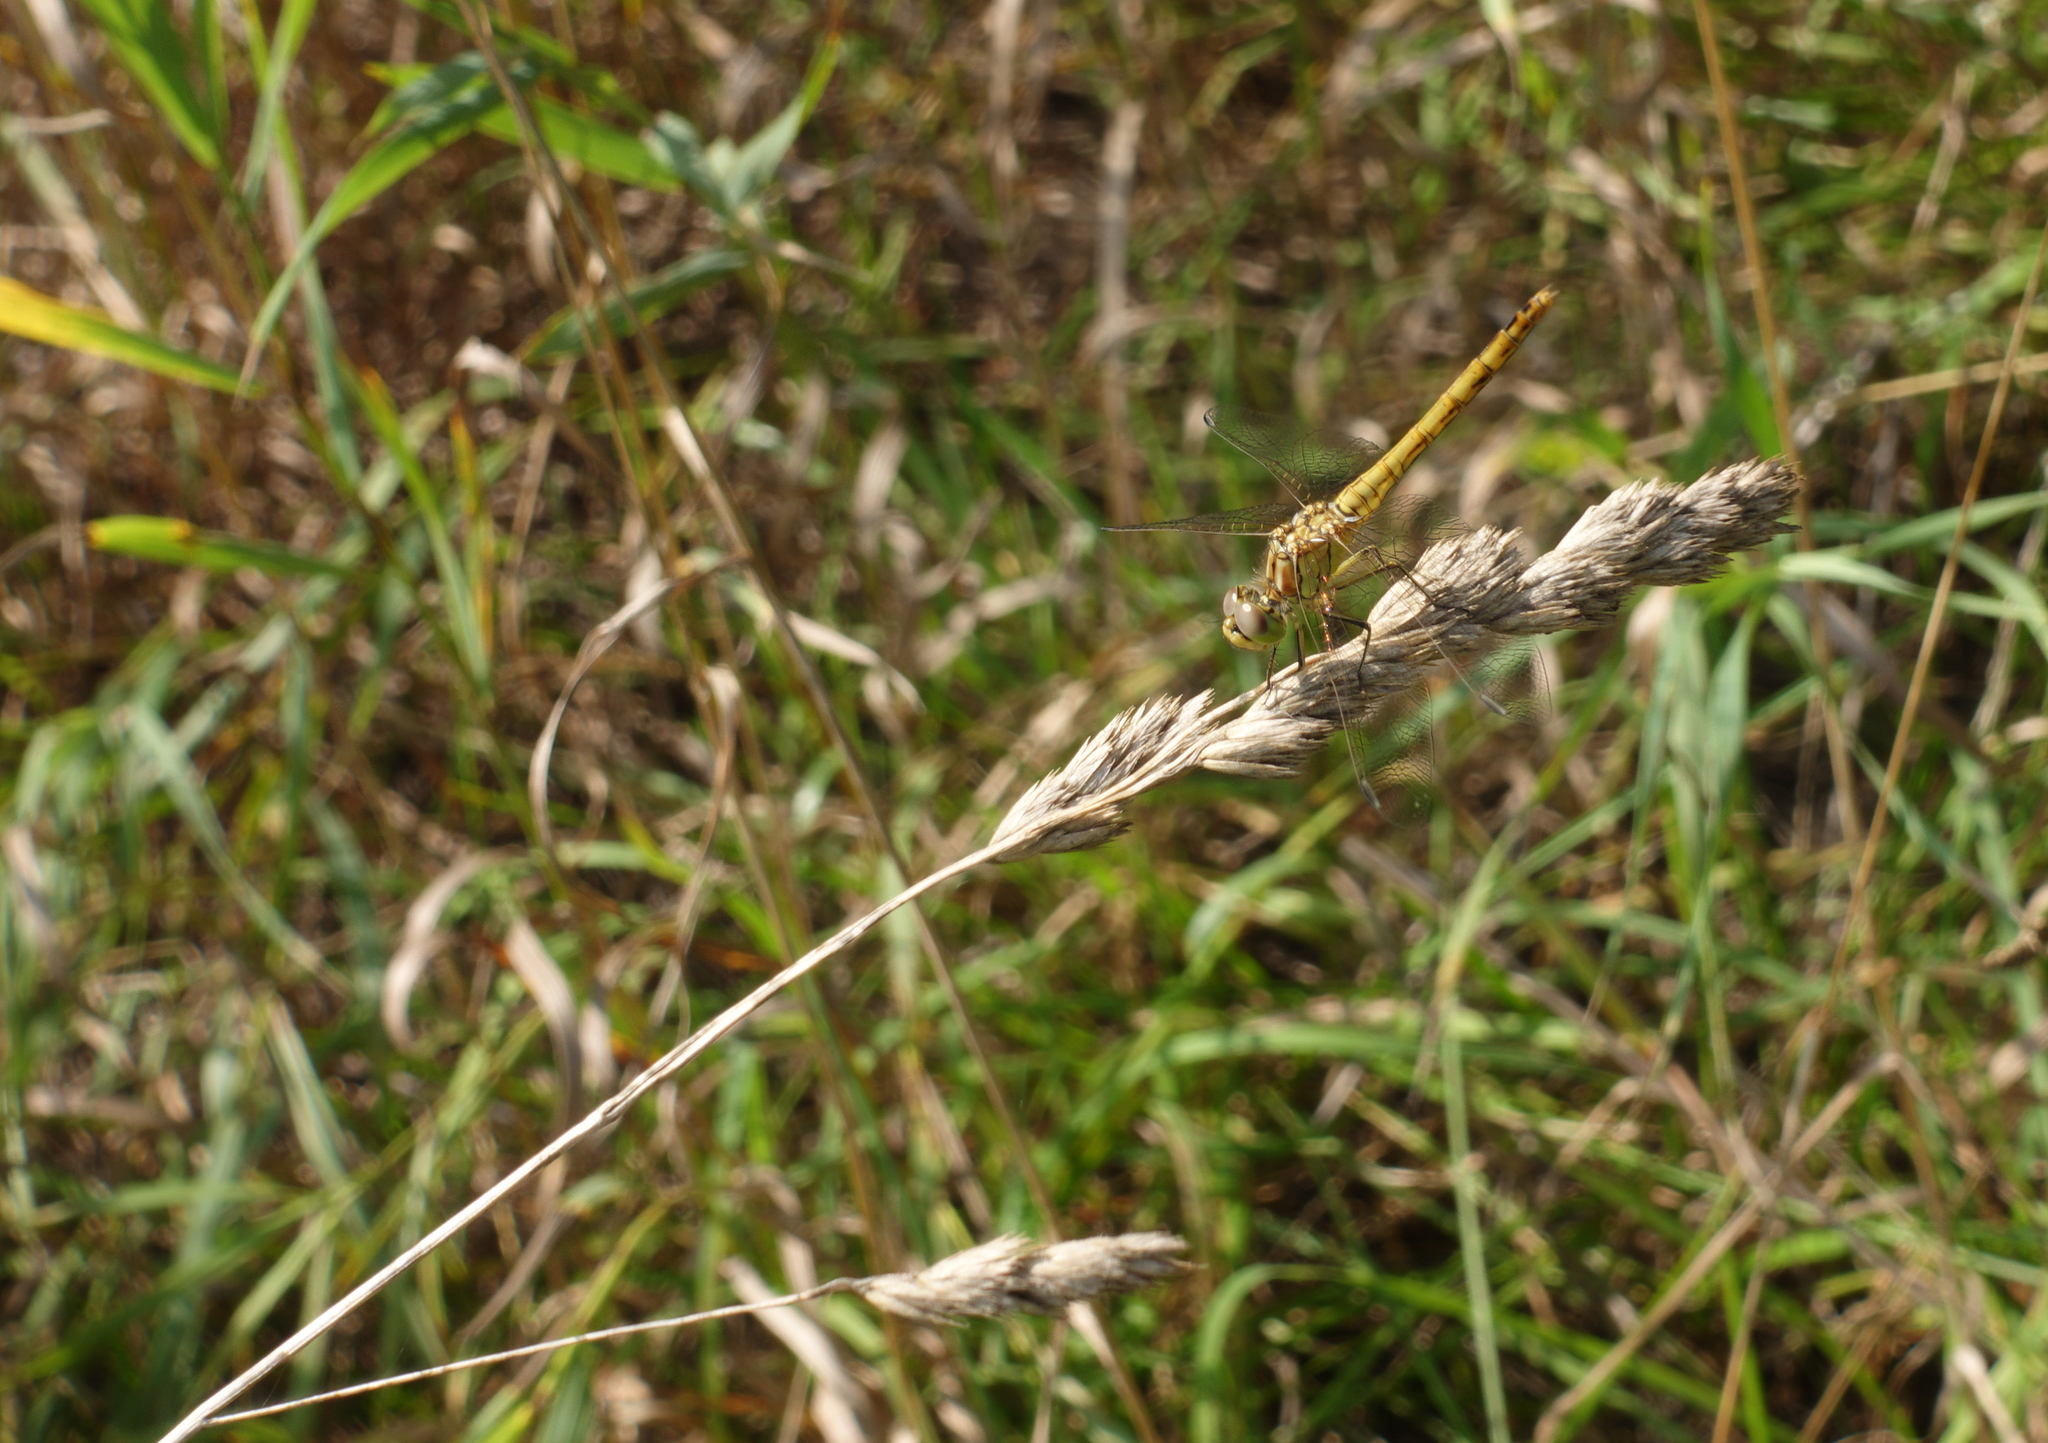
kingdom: Plantae
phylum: Tracheophyta
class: Liliopsida
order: Poales
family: Poaceae
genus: Dactylis
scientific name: Dactylis glomerata
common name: Orchardgrass
